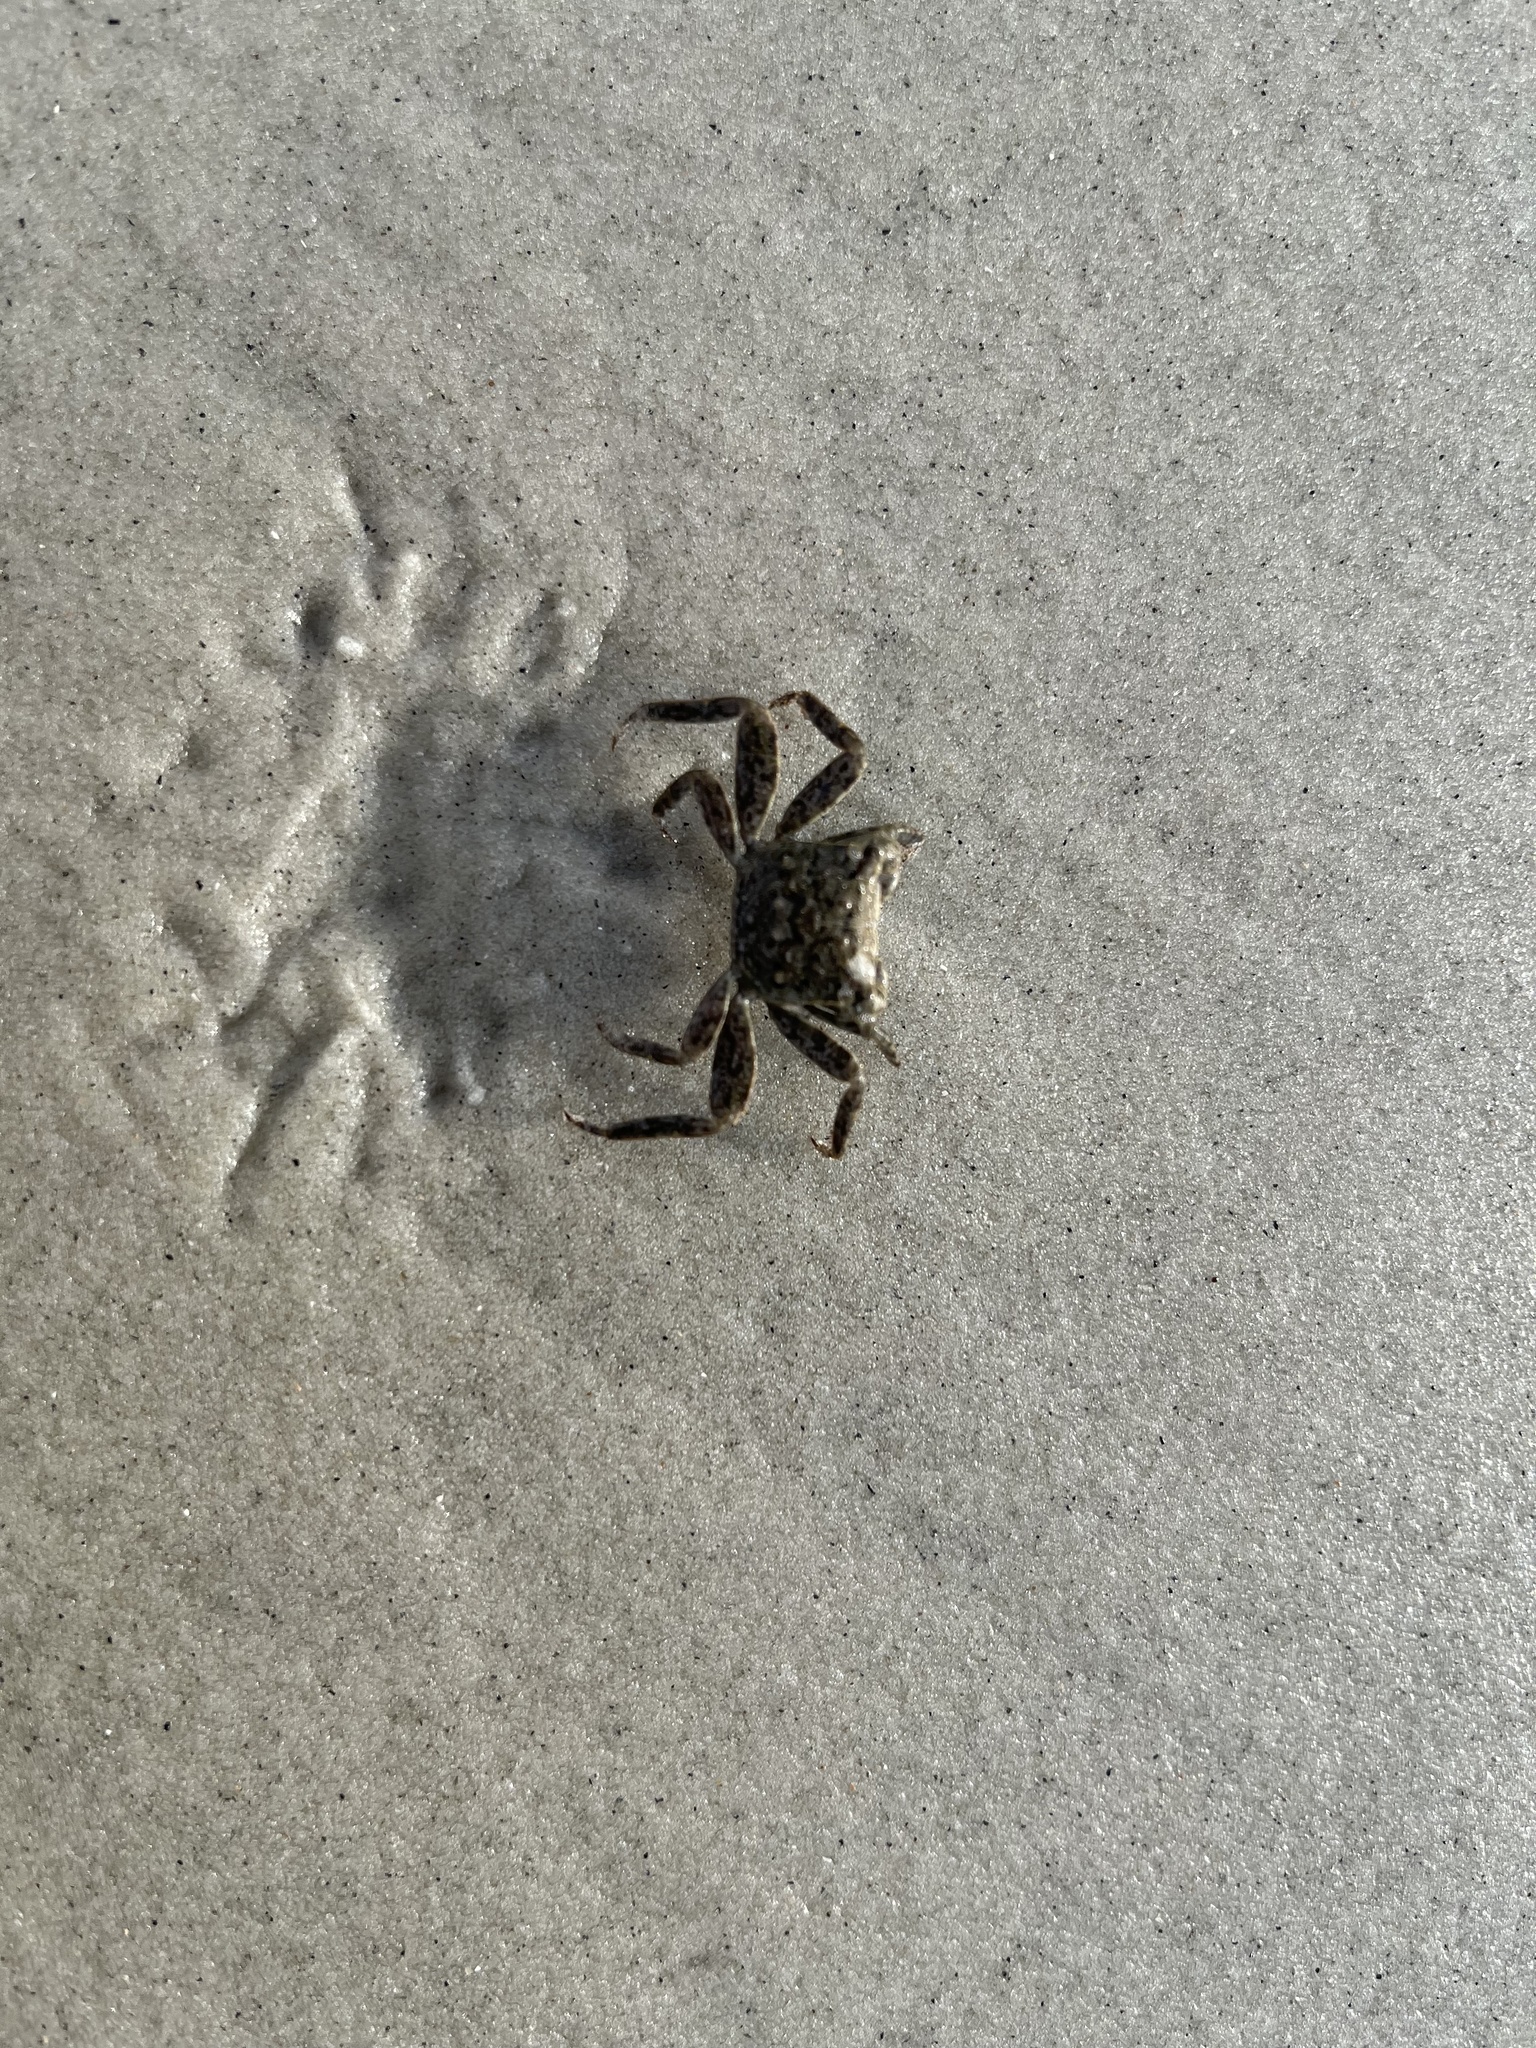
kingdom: Animalia
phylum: Arthropoda
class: Malacostraca
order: Decapoda
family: Sesarmidae
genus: Armases
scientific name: Armases cinereum
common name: Squareback marsh crab
